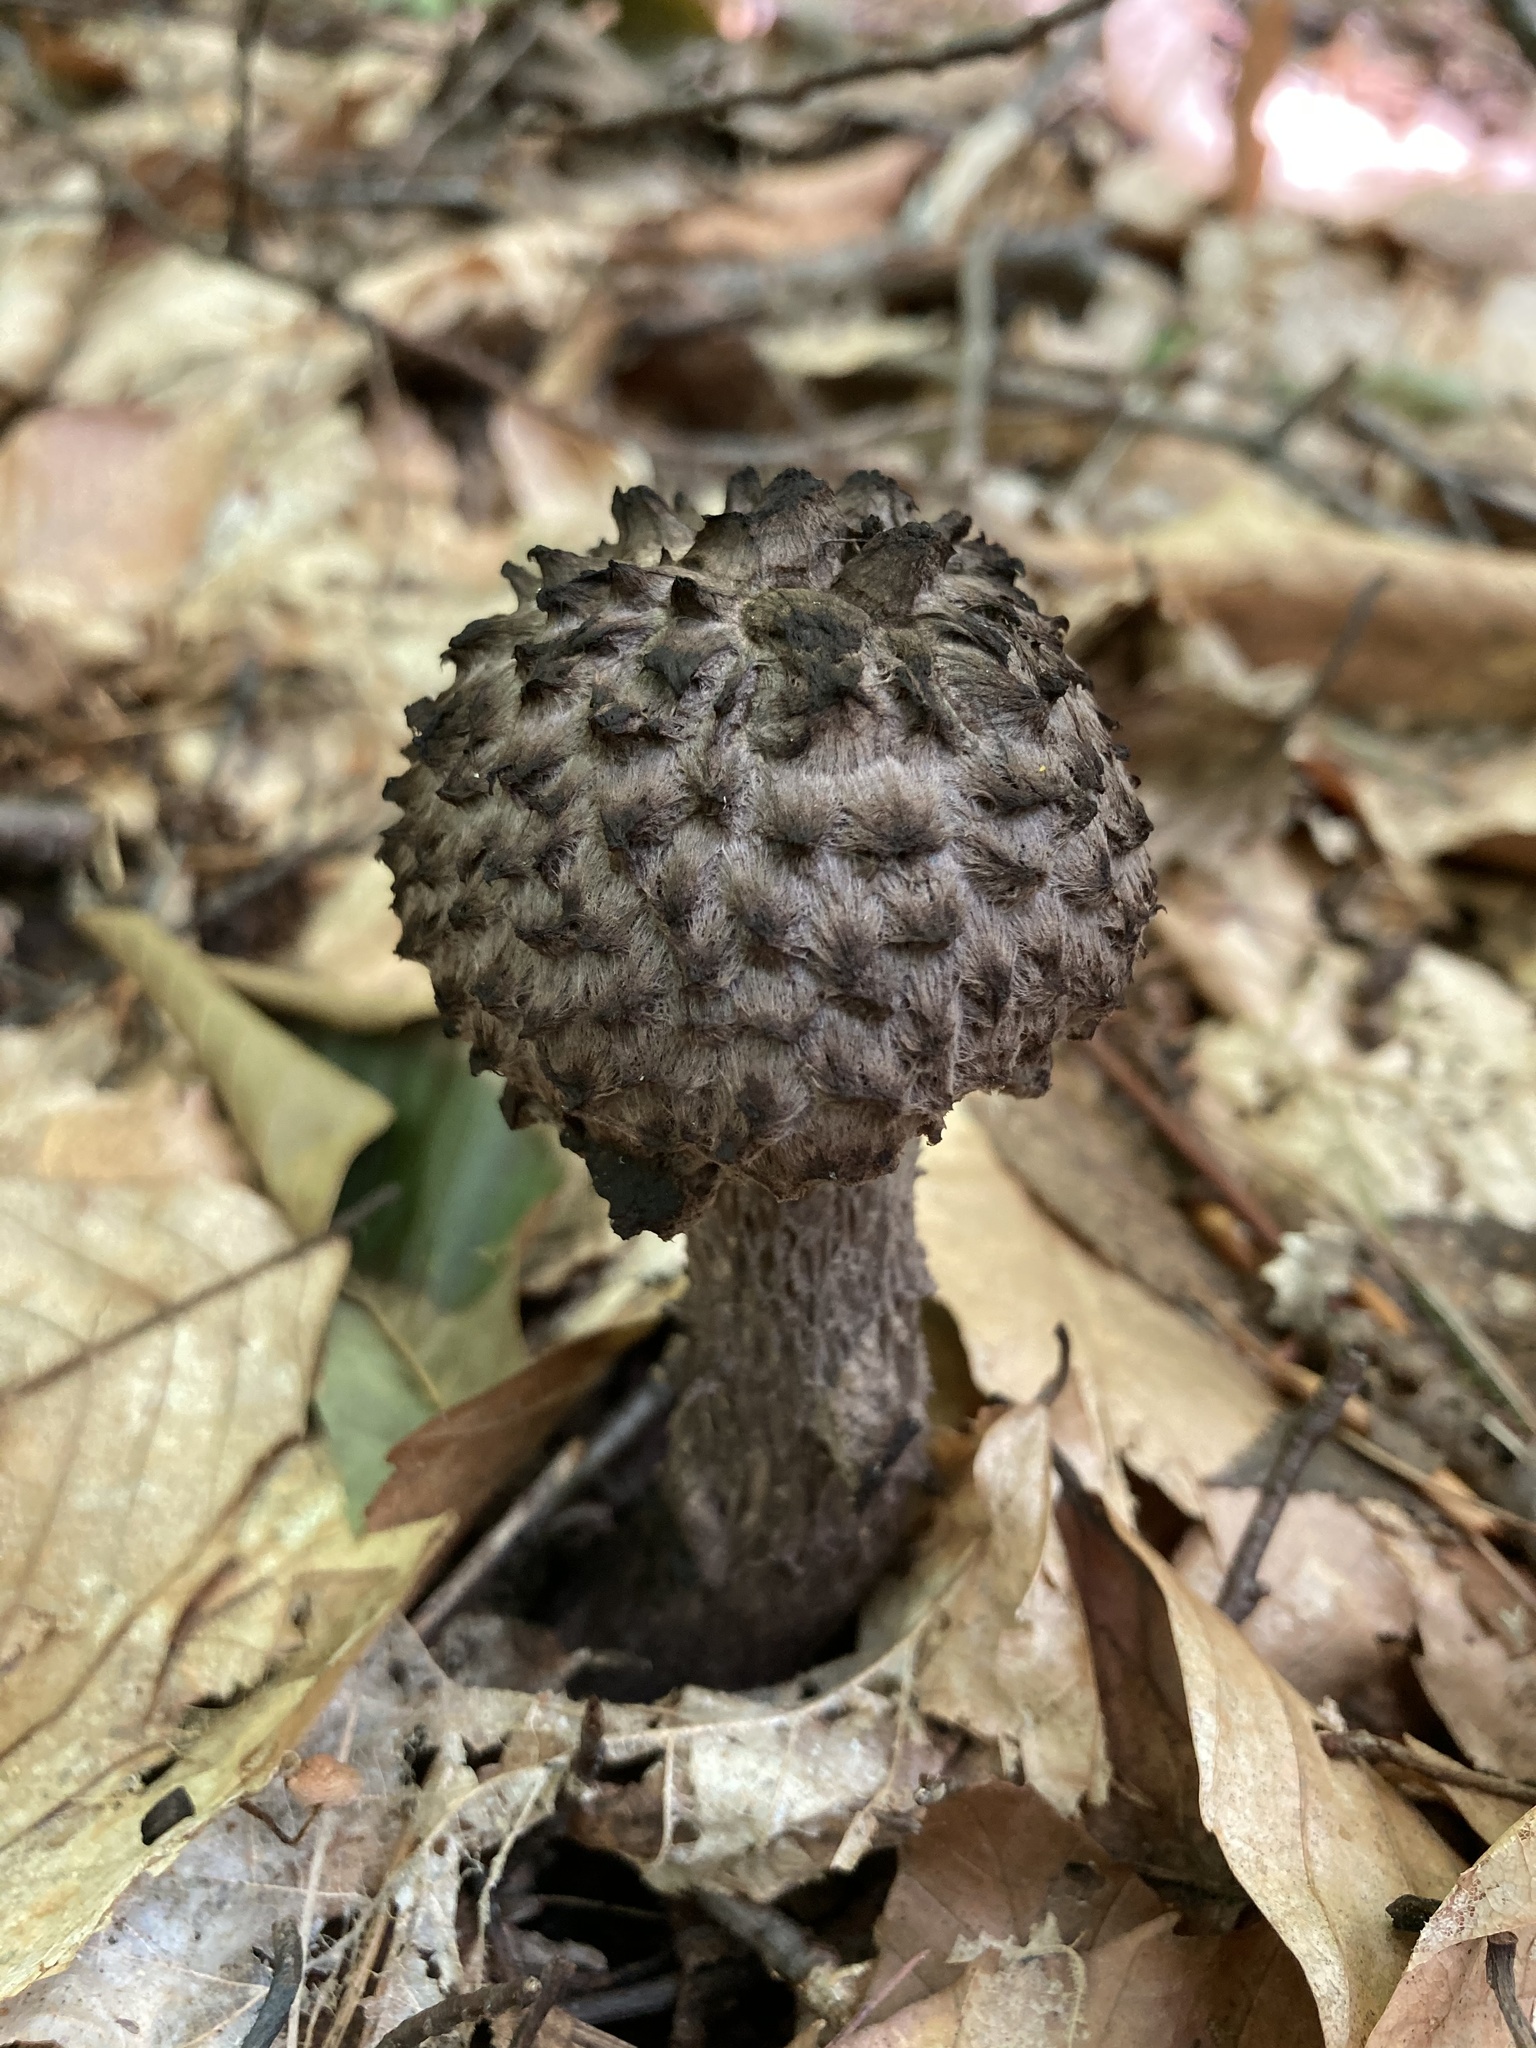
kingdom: Fungi
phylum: Basidiomycota
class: Agaricomycetes
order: Boletales
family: Boletaceae
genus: Strobilomyces
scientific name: Strobilomyces strobilaceus
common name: Old man of the woods
